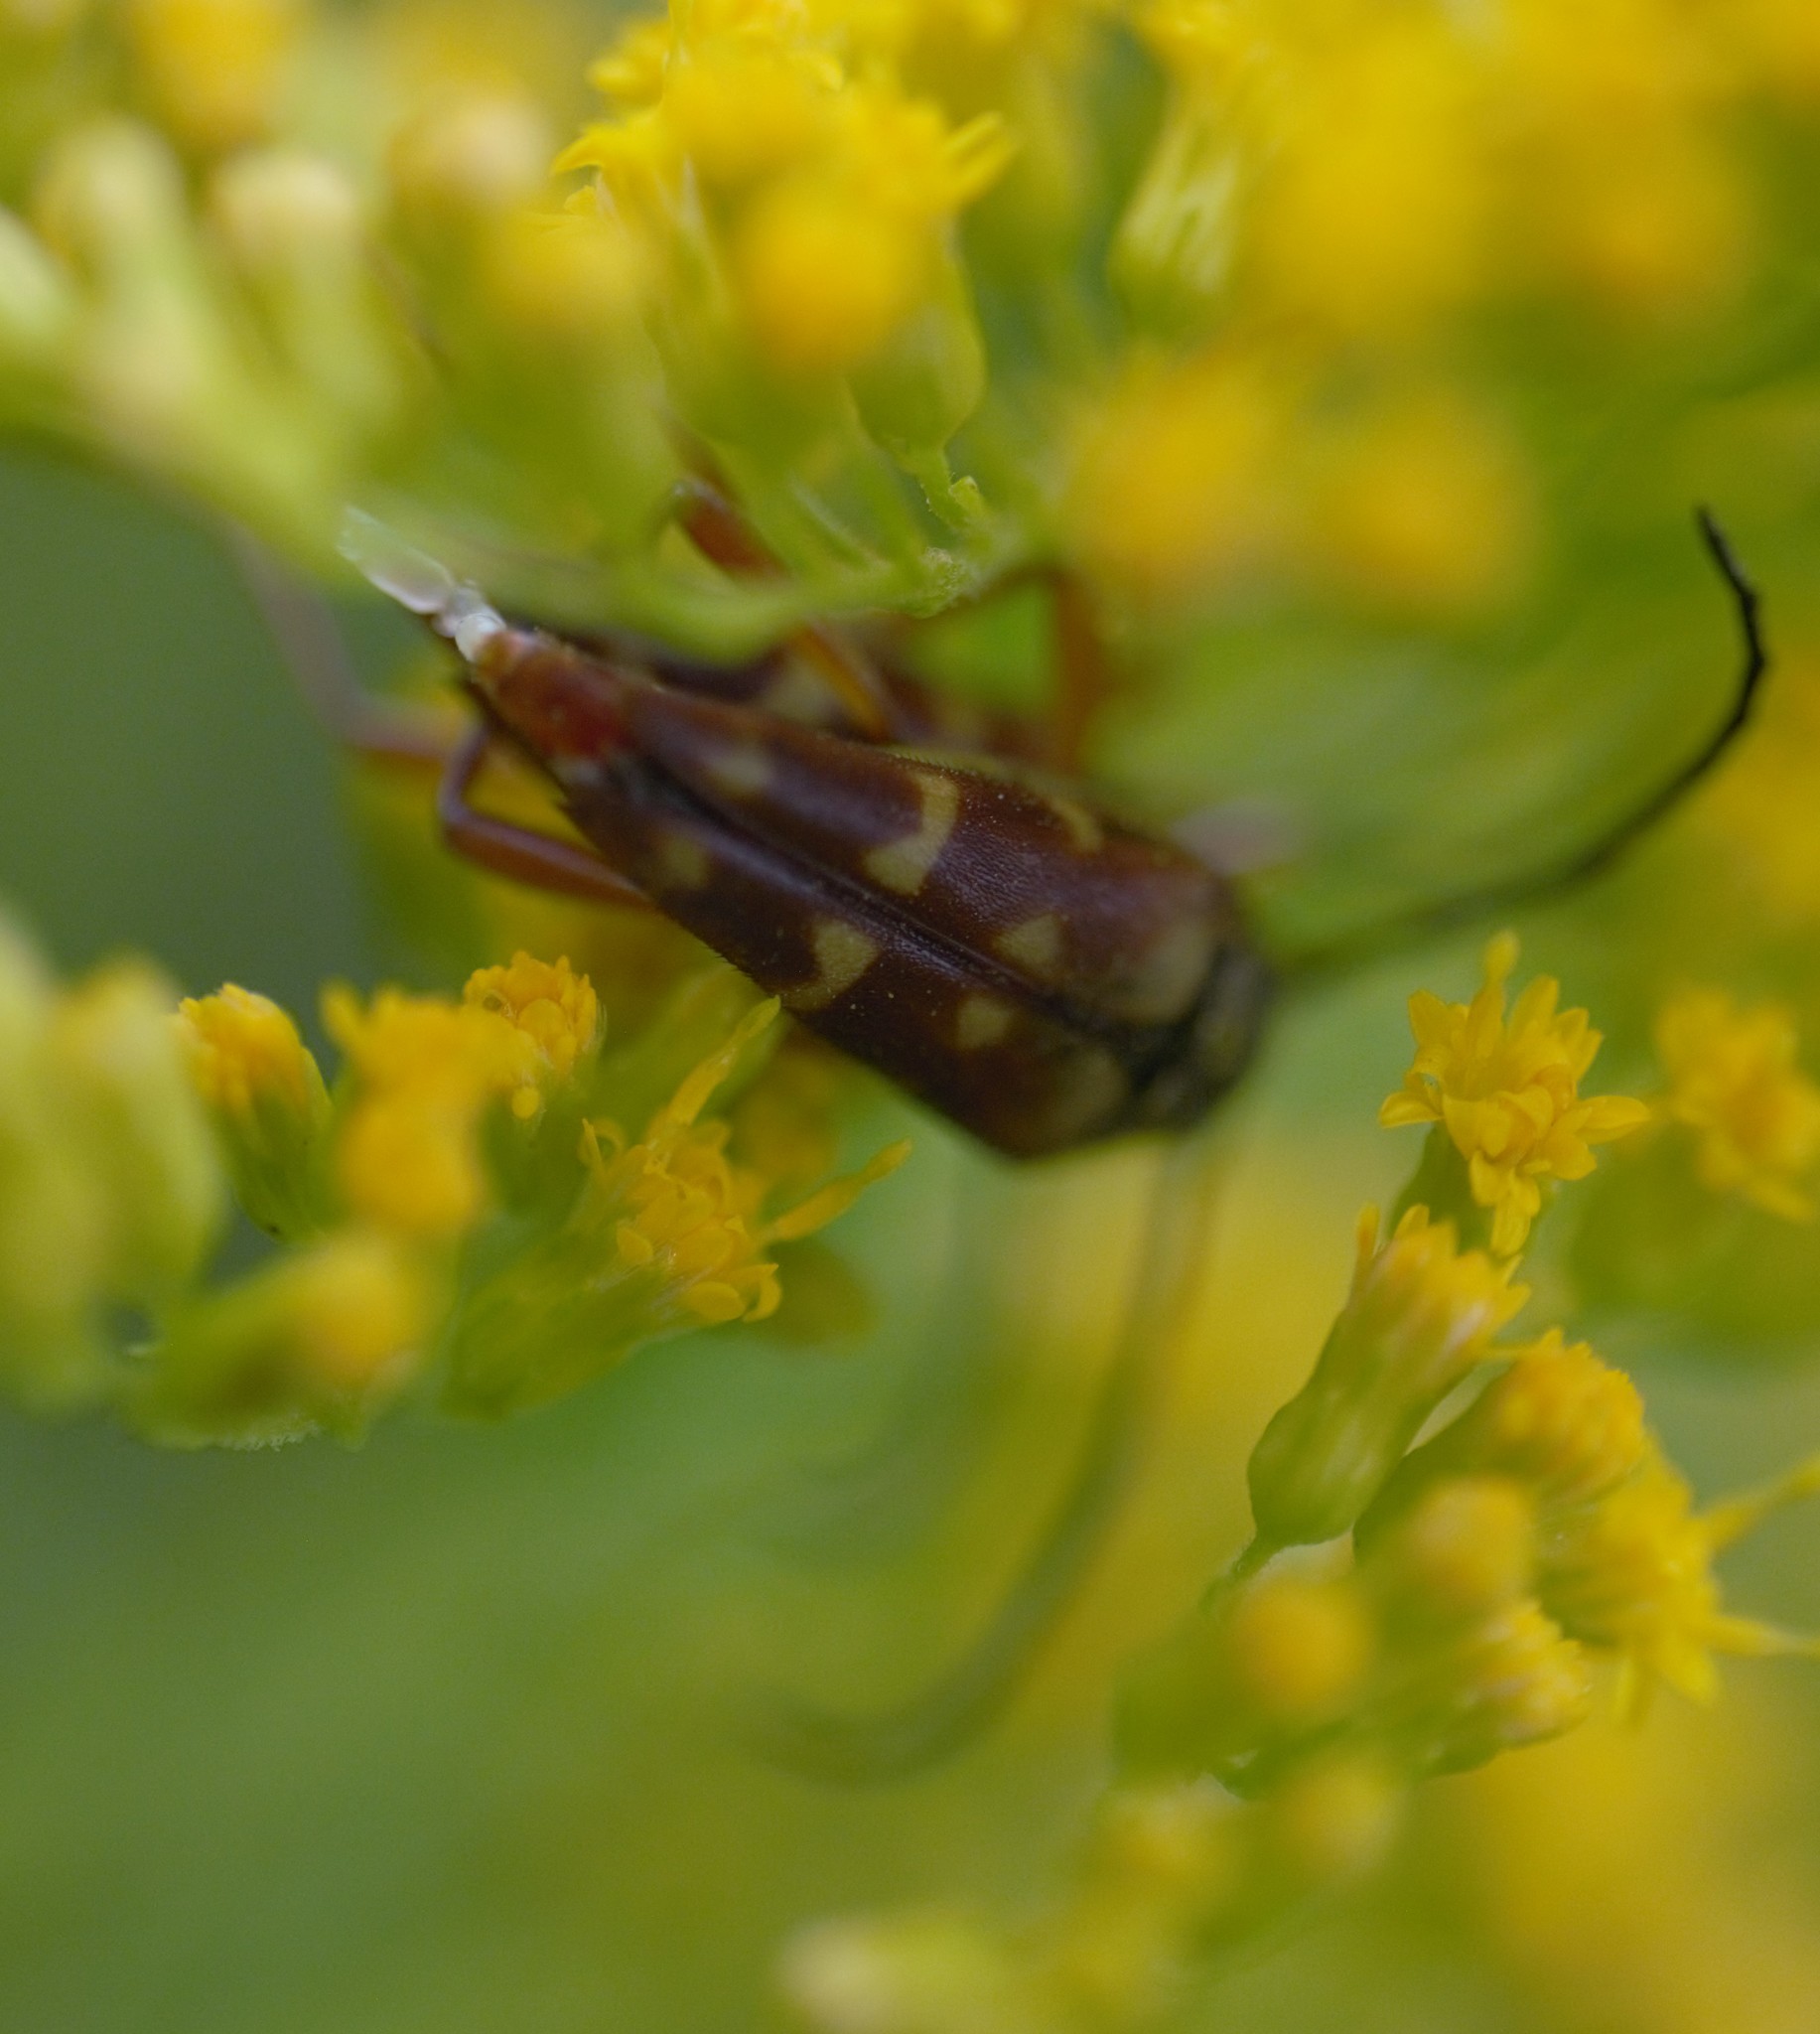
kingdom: Animalia
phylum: Arthropoda
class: Insecta
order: Coleoptera
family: Cerambycidae
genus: Typocerus
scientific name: Typocerus velutinus
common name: Banded longhorn beetle
